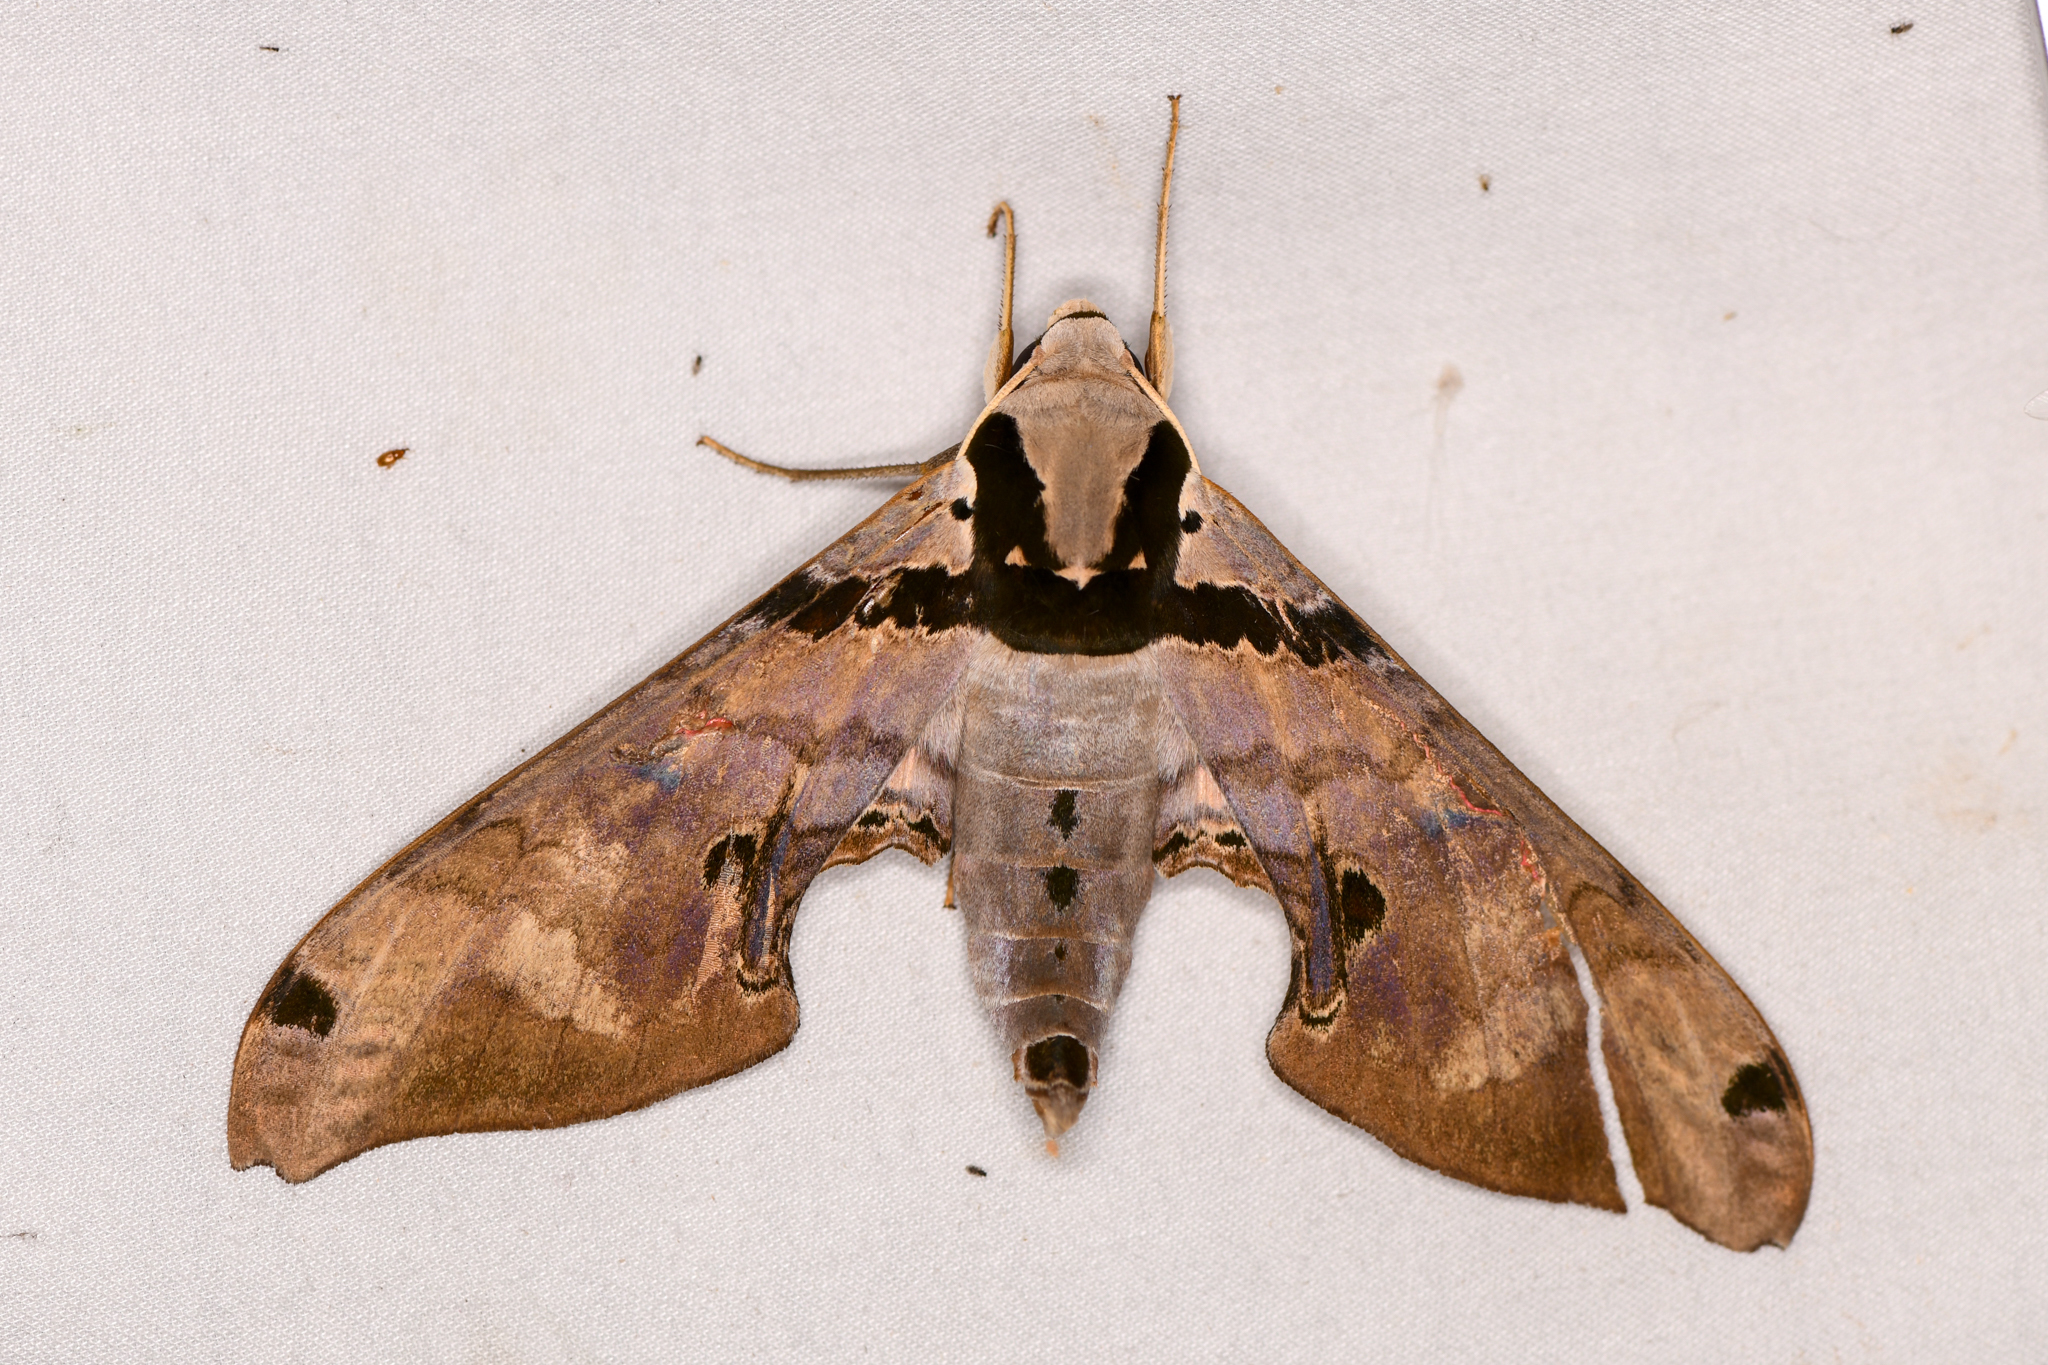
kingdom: Animalia
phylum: Arthropoda
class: Insecta
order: Lepidoptera
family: Sphingidae
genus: Adhemarius
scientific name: Adhemarius gannascus
